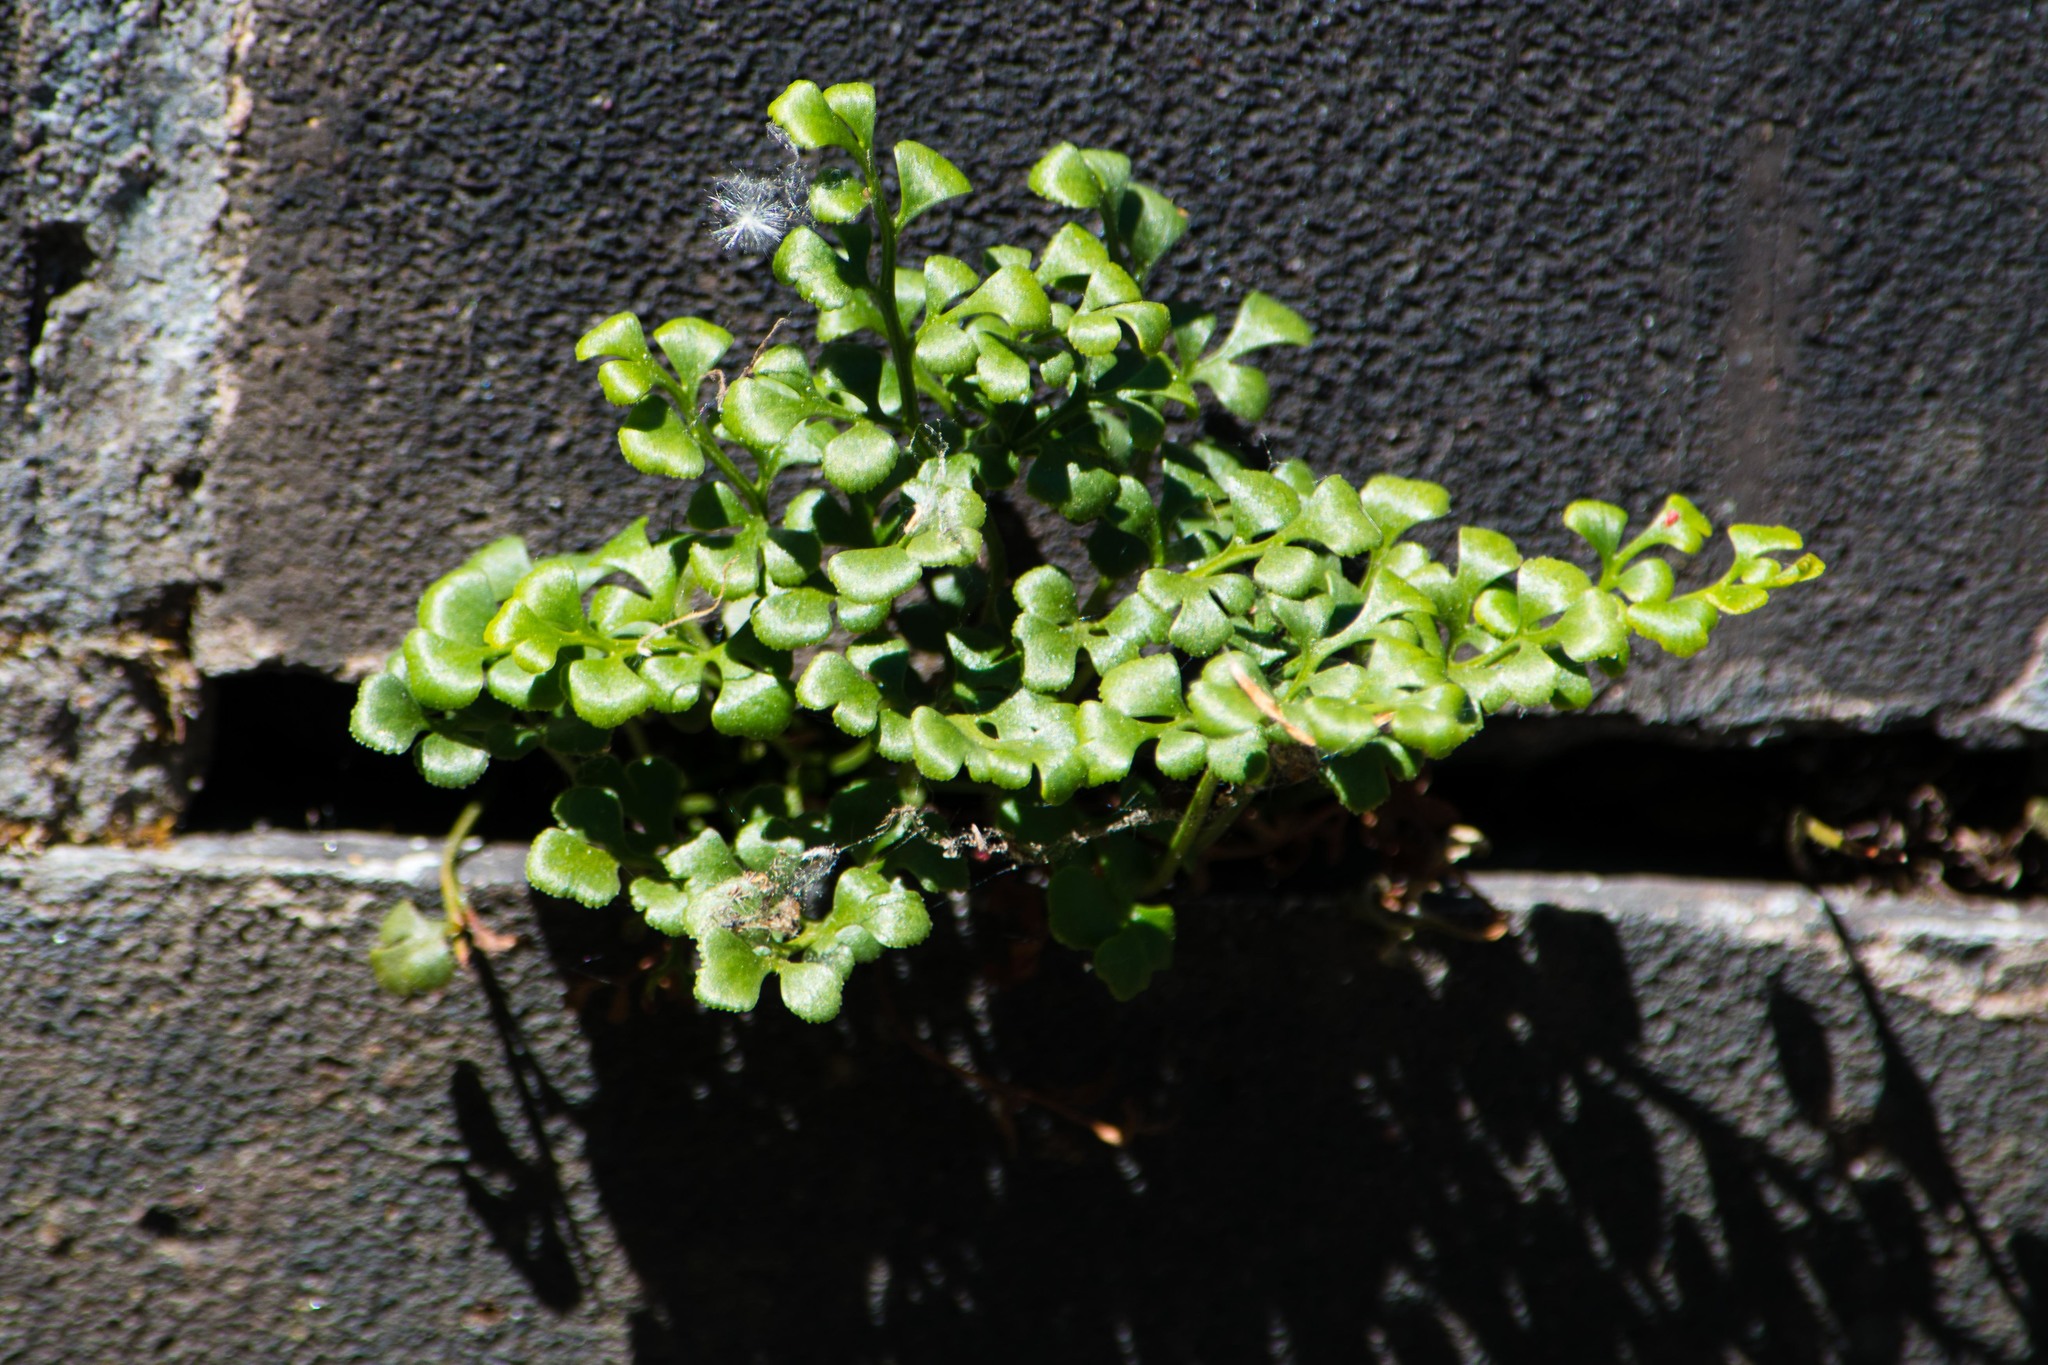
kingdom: Plantae
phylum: Tracheophyta
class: Polypodiopsida
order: Polypodiales
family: Aspleniaceae
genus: Asplenium
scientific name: Asplenium ruta-muraria
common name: Wall-rue
